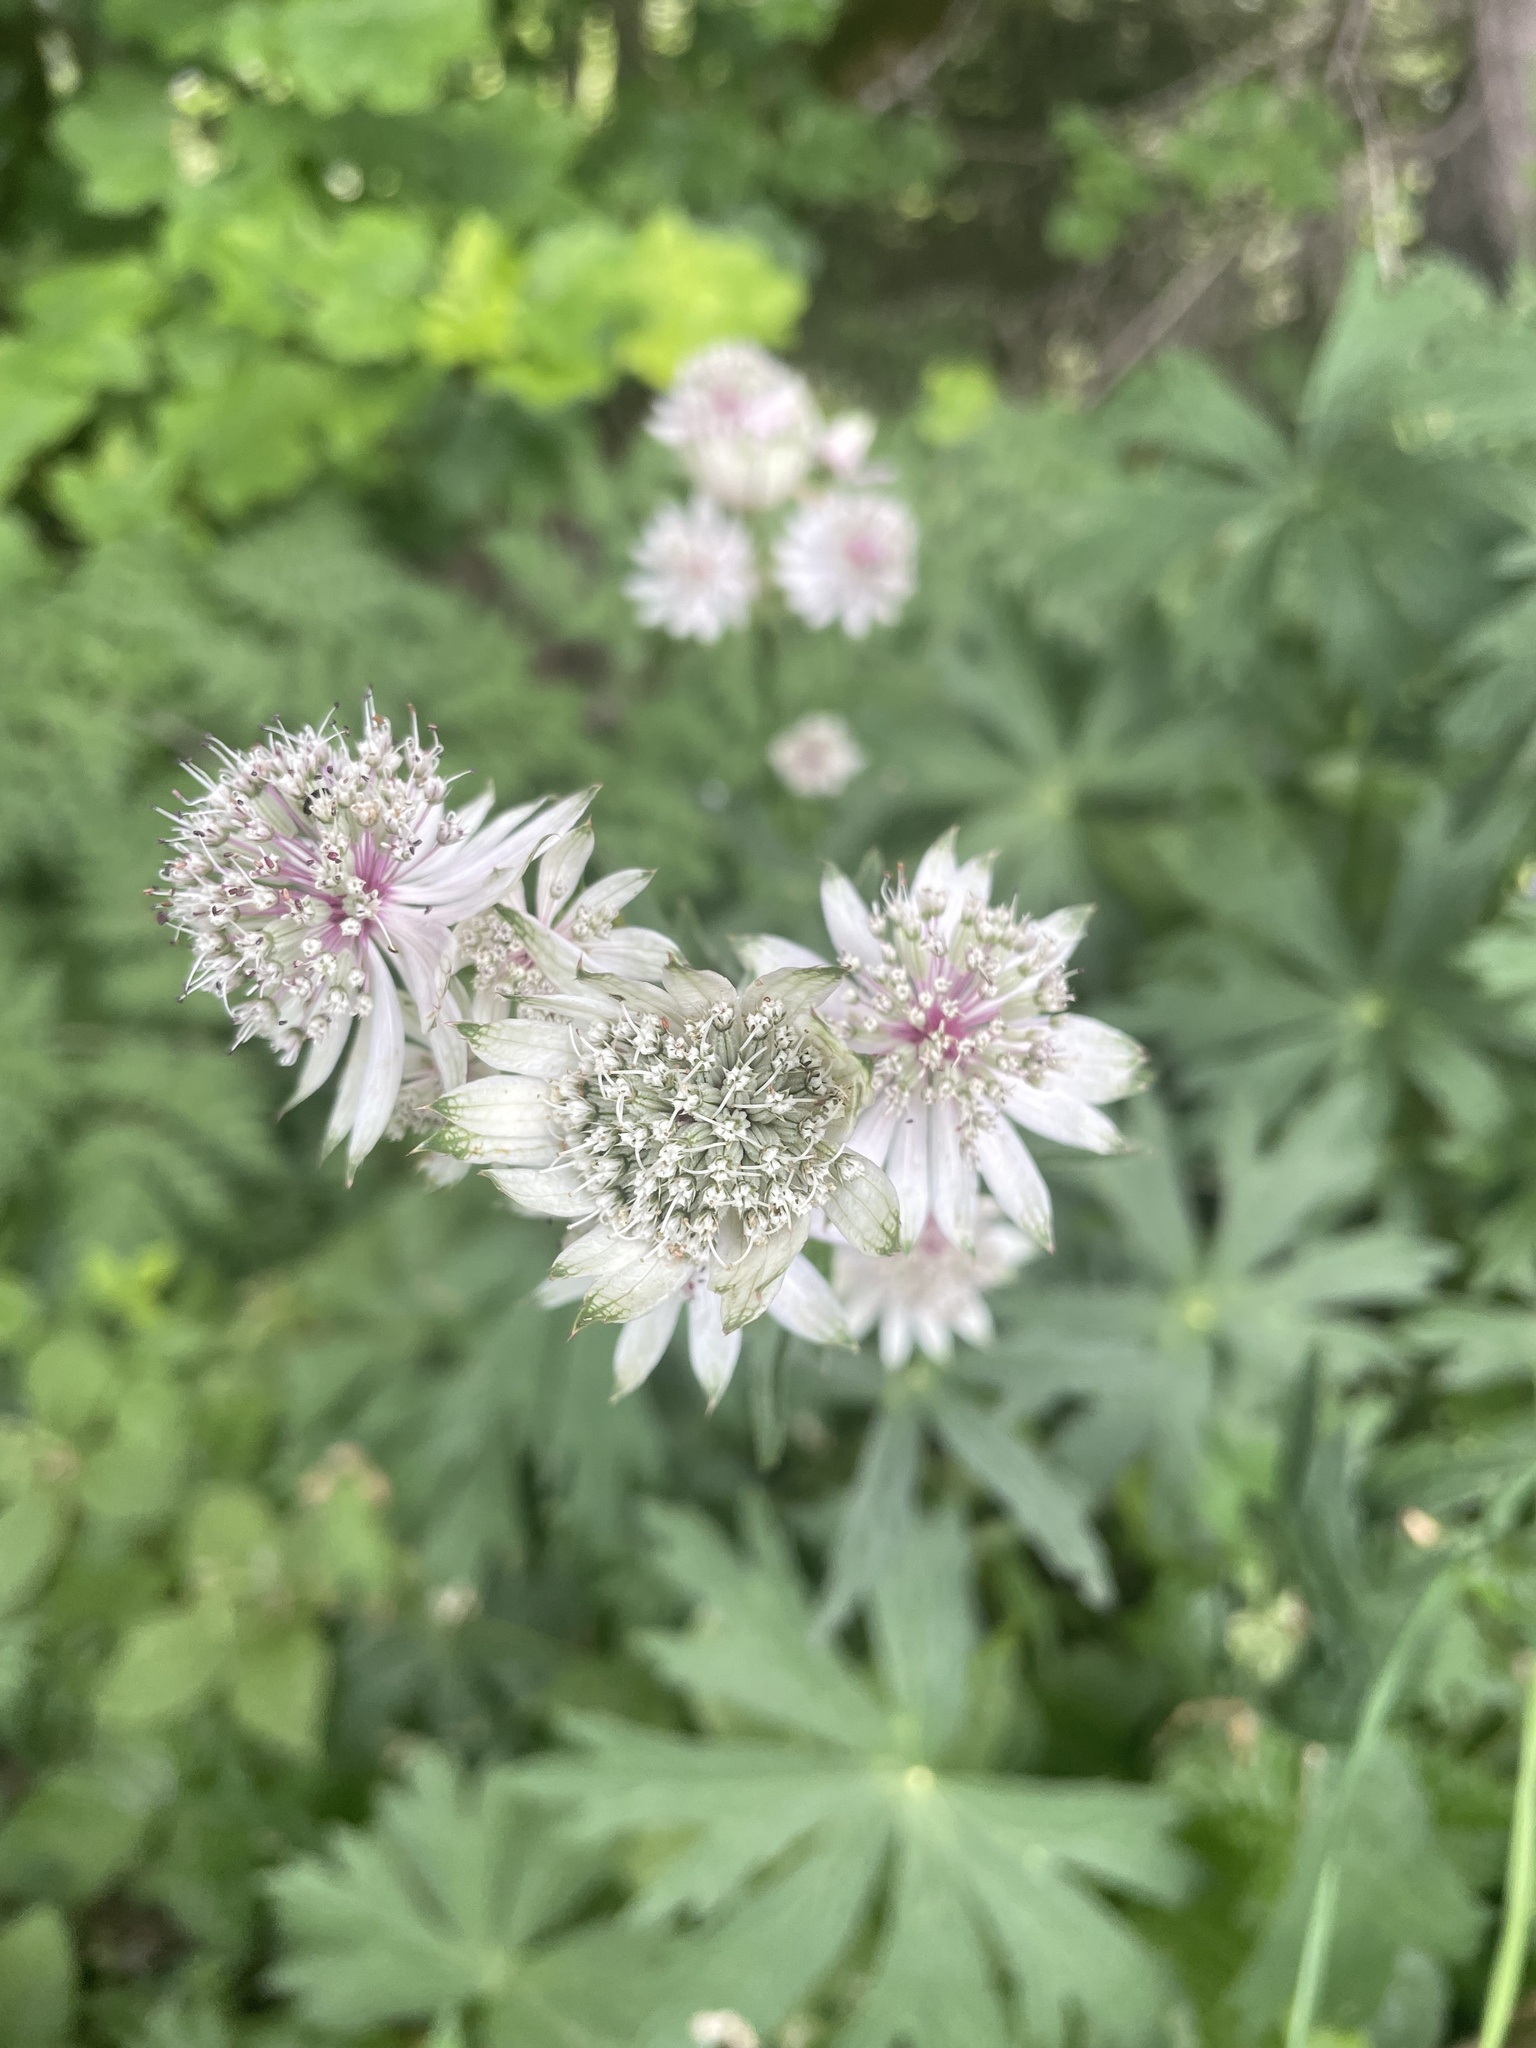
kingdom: Plantae
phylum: Tracheophyta
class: Magnoliopsida
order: Apiales
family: Apiaceae
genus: Astrantia
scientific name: Astrantia major
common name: Greater masterwort
